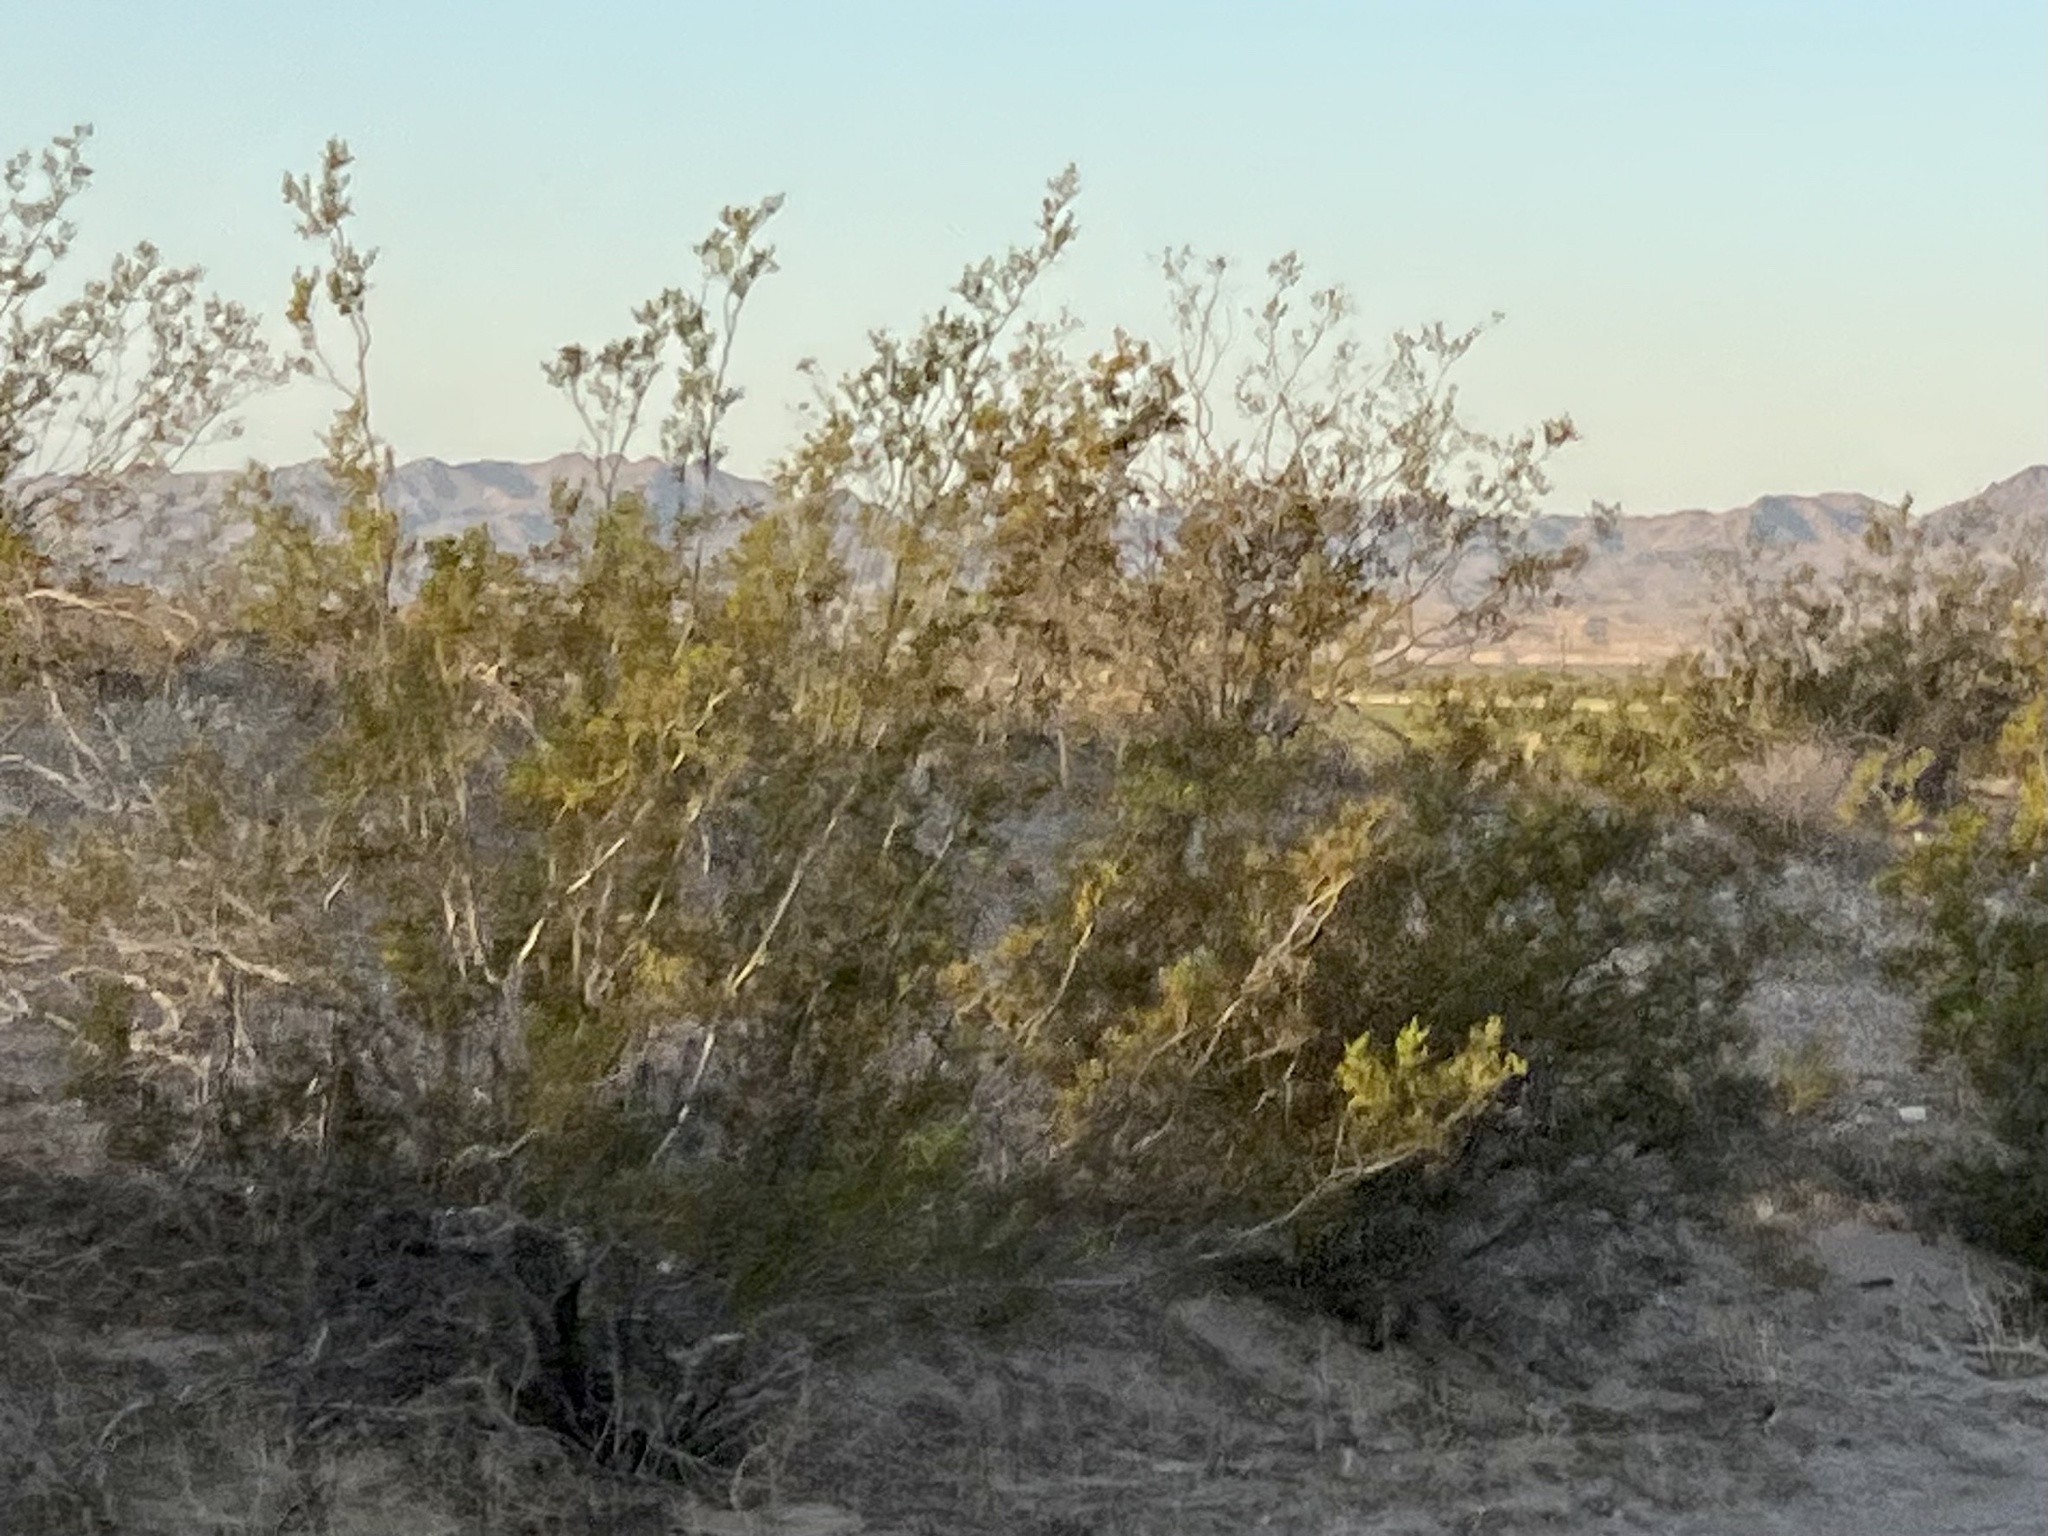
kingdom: Plantae
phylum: Tracheophyta
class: Magnoliopsida
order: Zygophyllales
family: Zygophyllaceae
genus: Larrea
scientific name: Larrea tridentata
